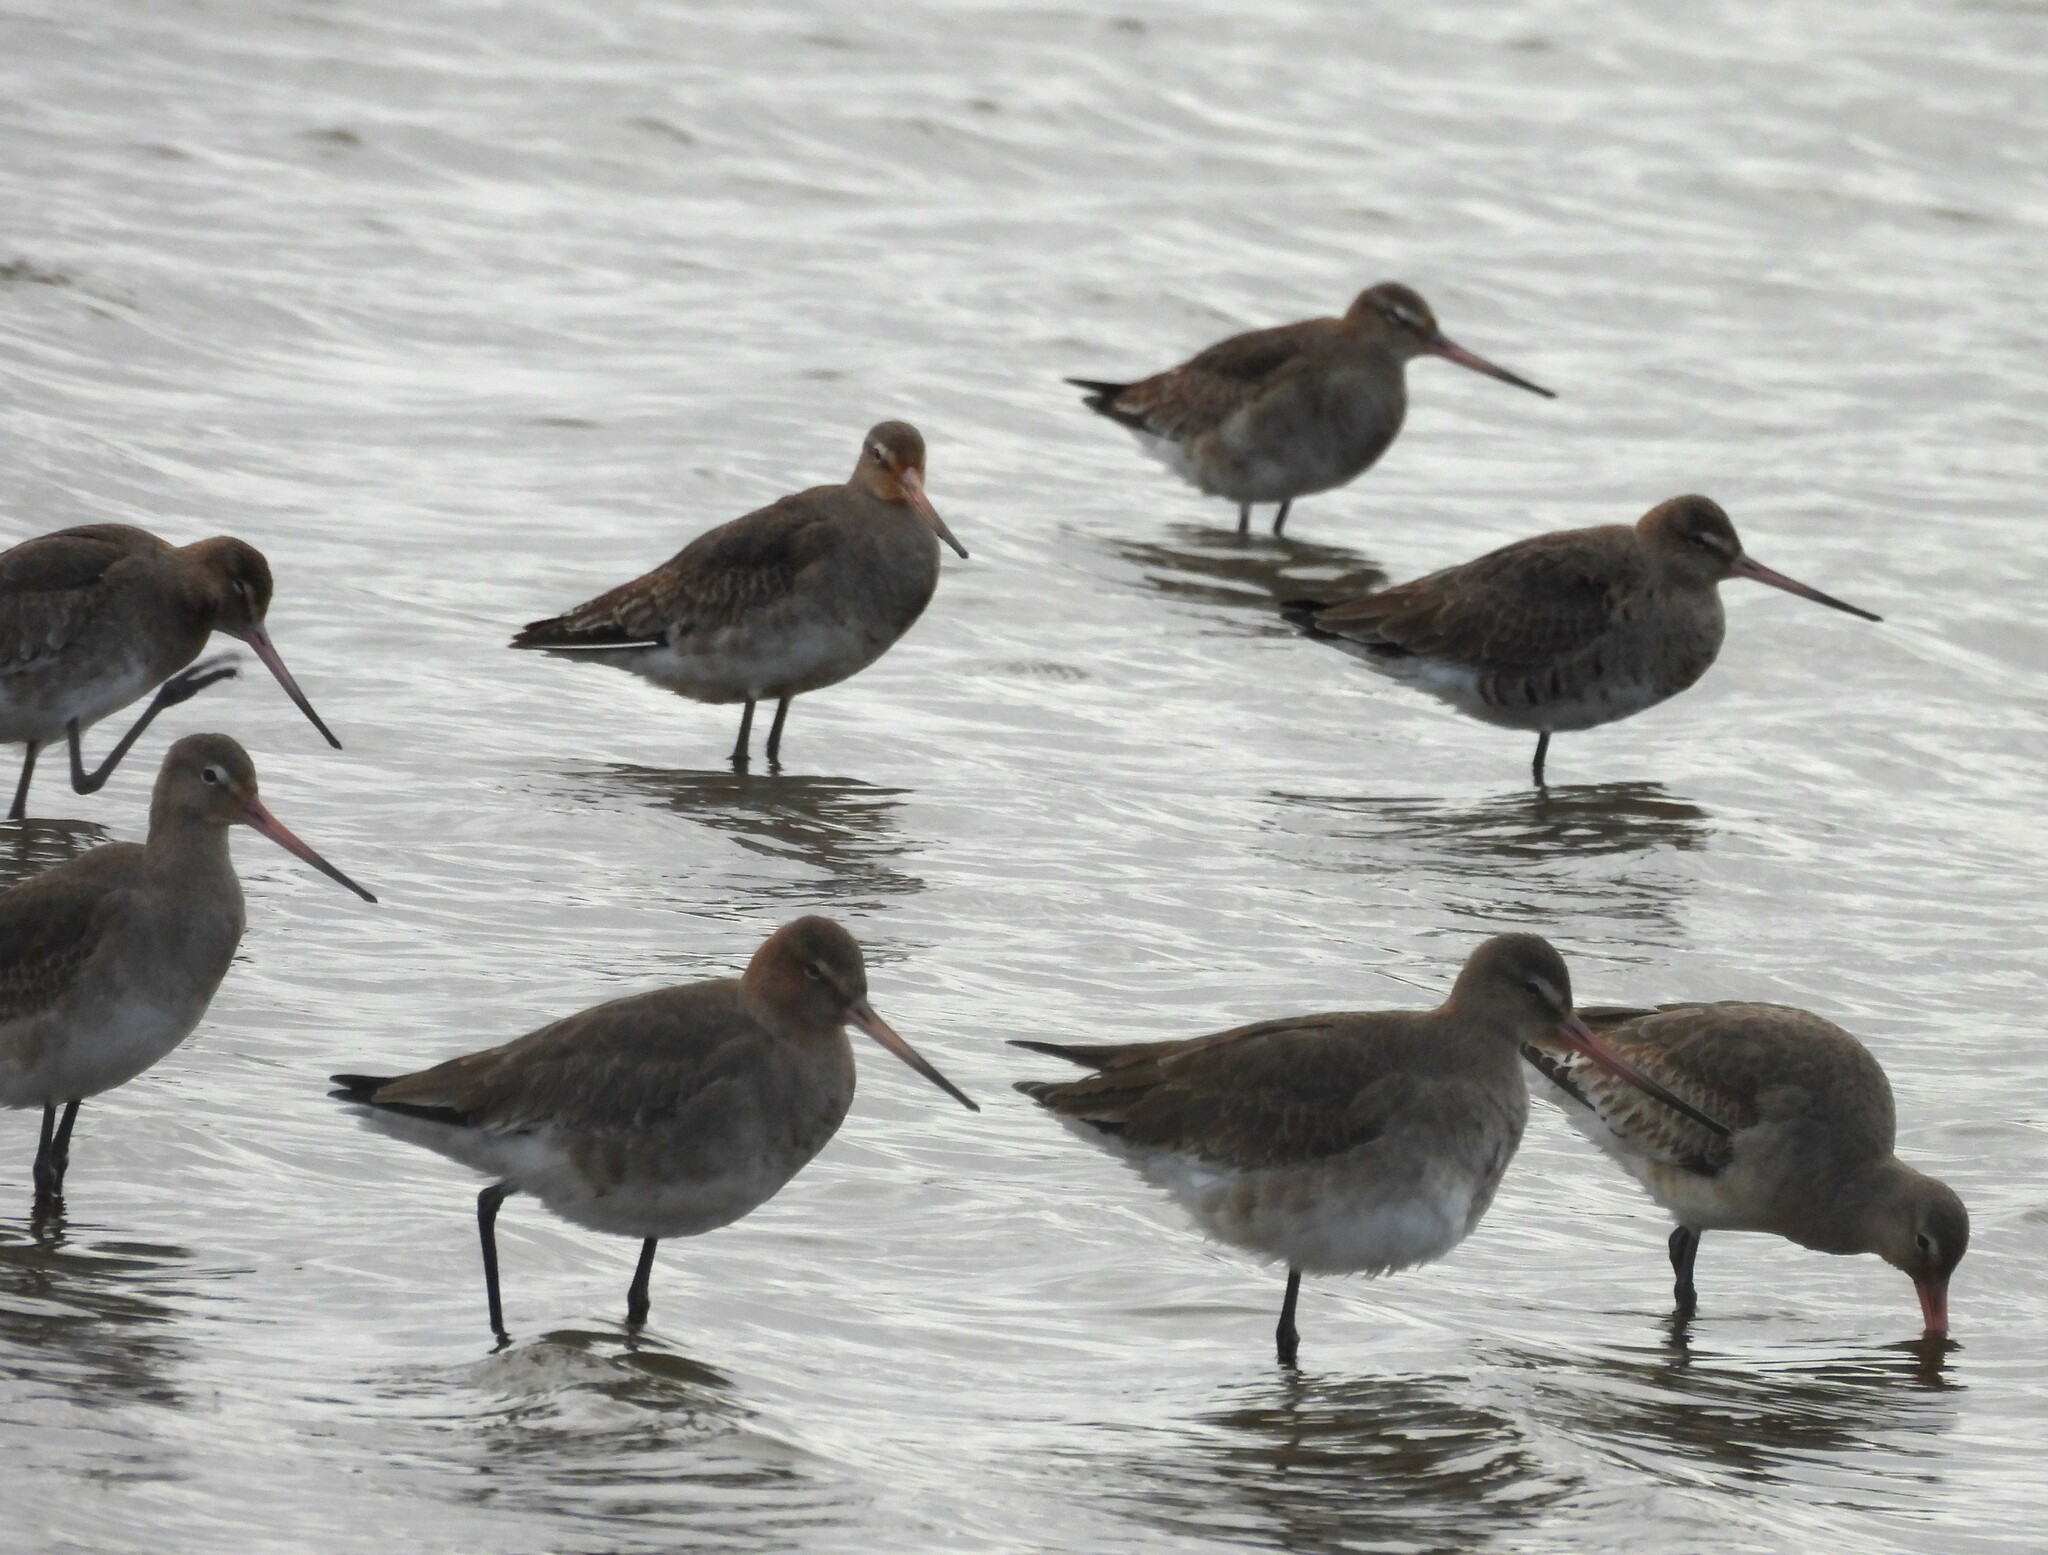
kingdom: Animalia
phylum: Chordata
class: Aves
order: Charadriiformes
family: Scolopacidae
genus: Limosa
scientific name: Limosa limosa
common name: Black-tailed godwit
